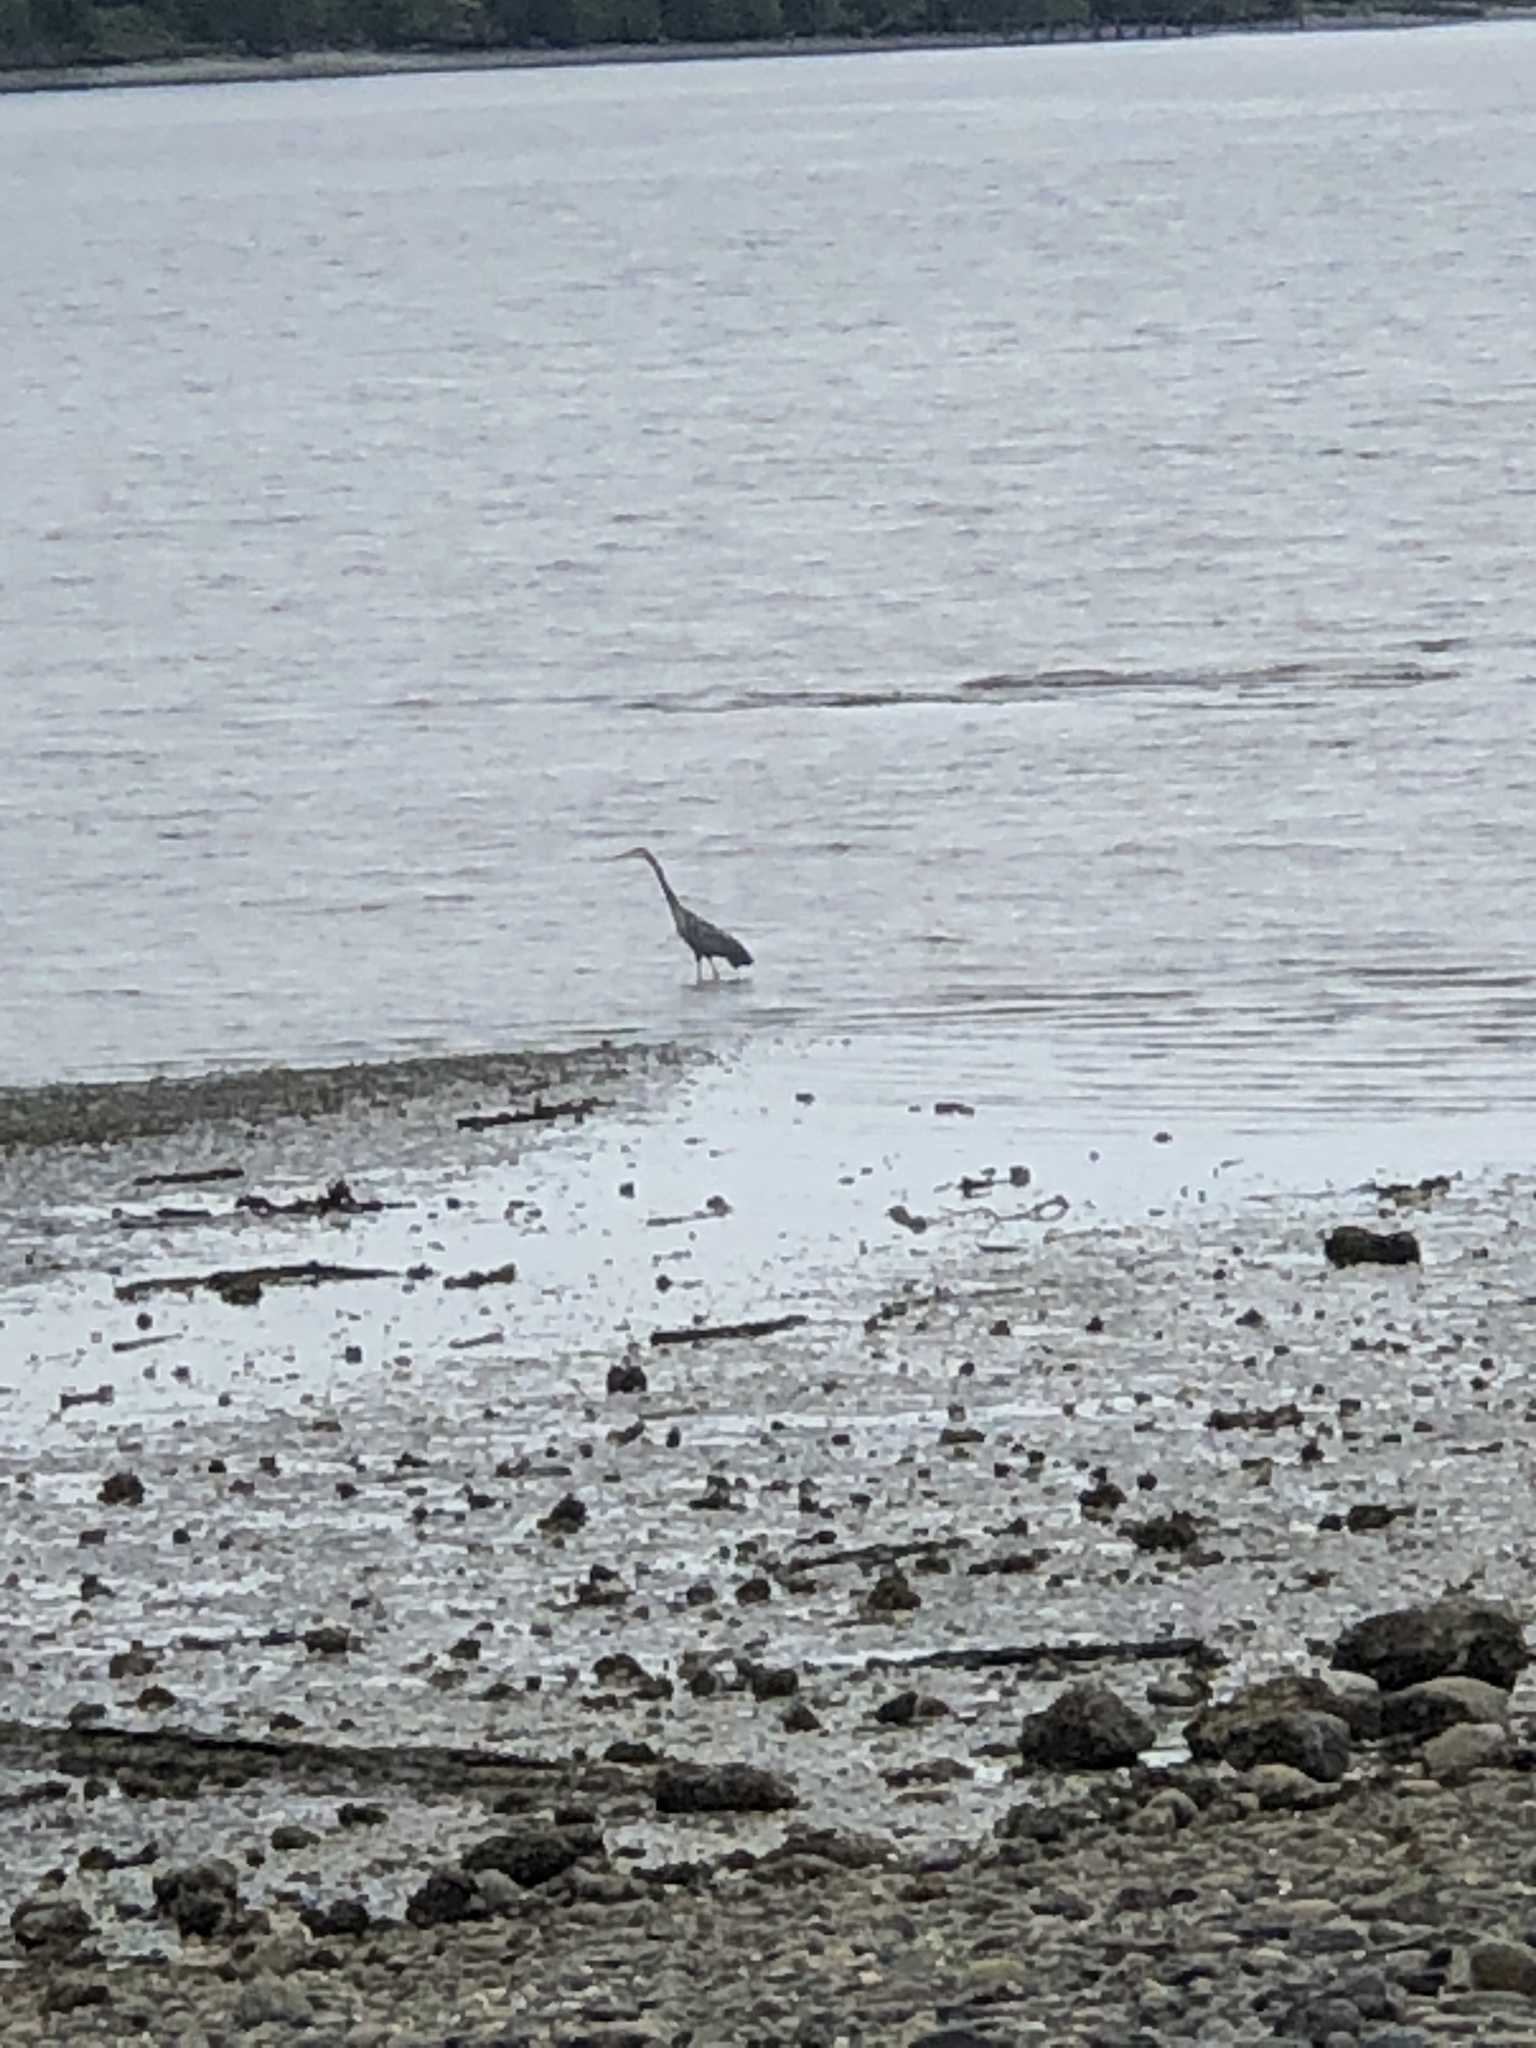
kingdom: Animalia
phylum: Chordata
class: Aves
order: Pelecaniformes
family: Ardeidae
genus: Ardea
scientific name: Ardea herodias
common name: Great blue heron
